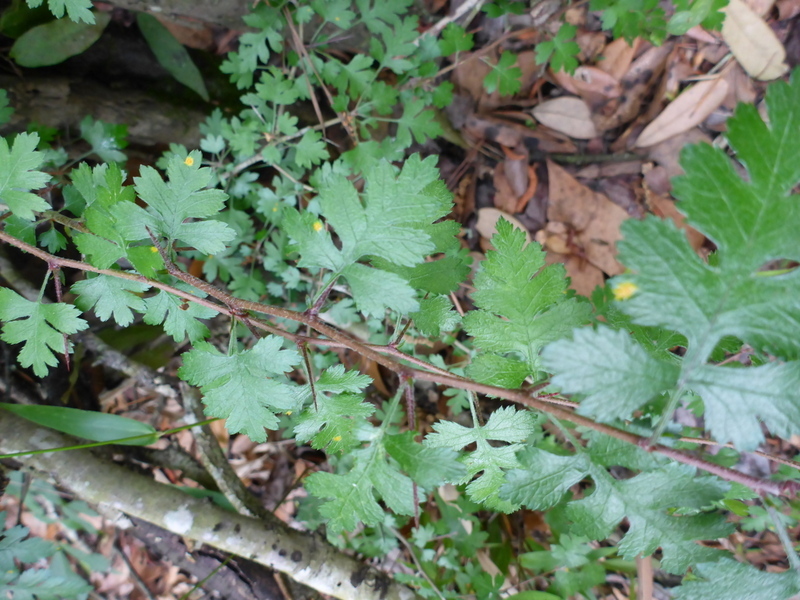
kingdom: Plantae
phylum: Tracheophyta
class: Magnoliopsida
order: Rosales
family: Rosaceae
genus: Crataegus
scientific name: Crataegus marshallii
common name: Parsley-hawthorn
